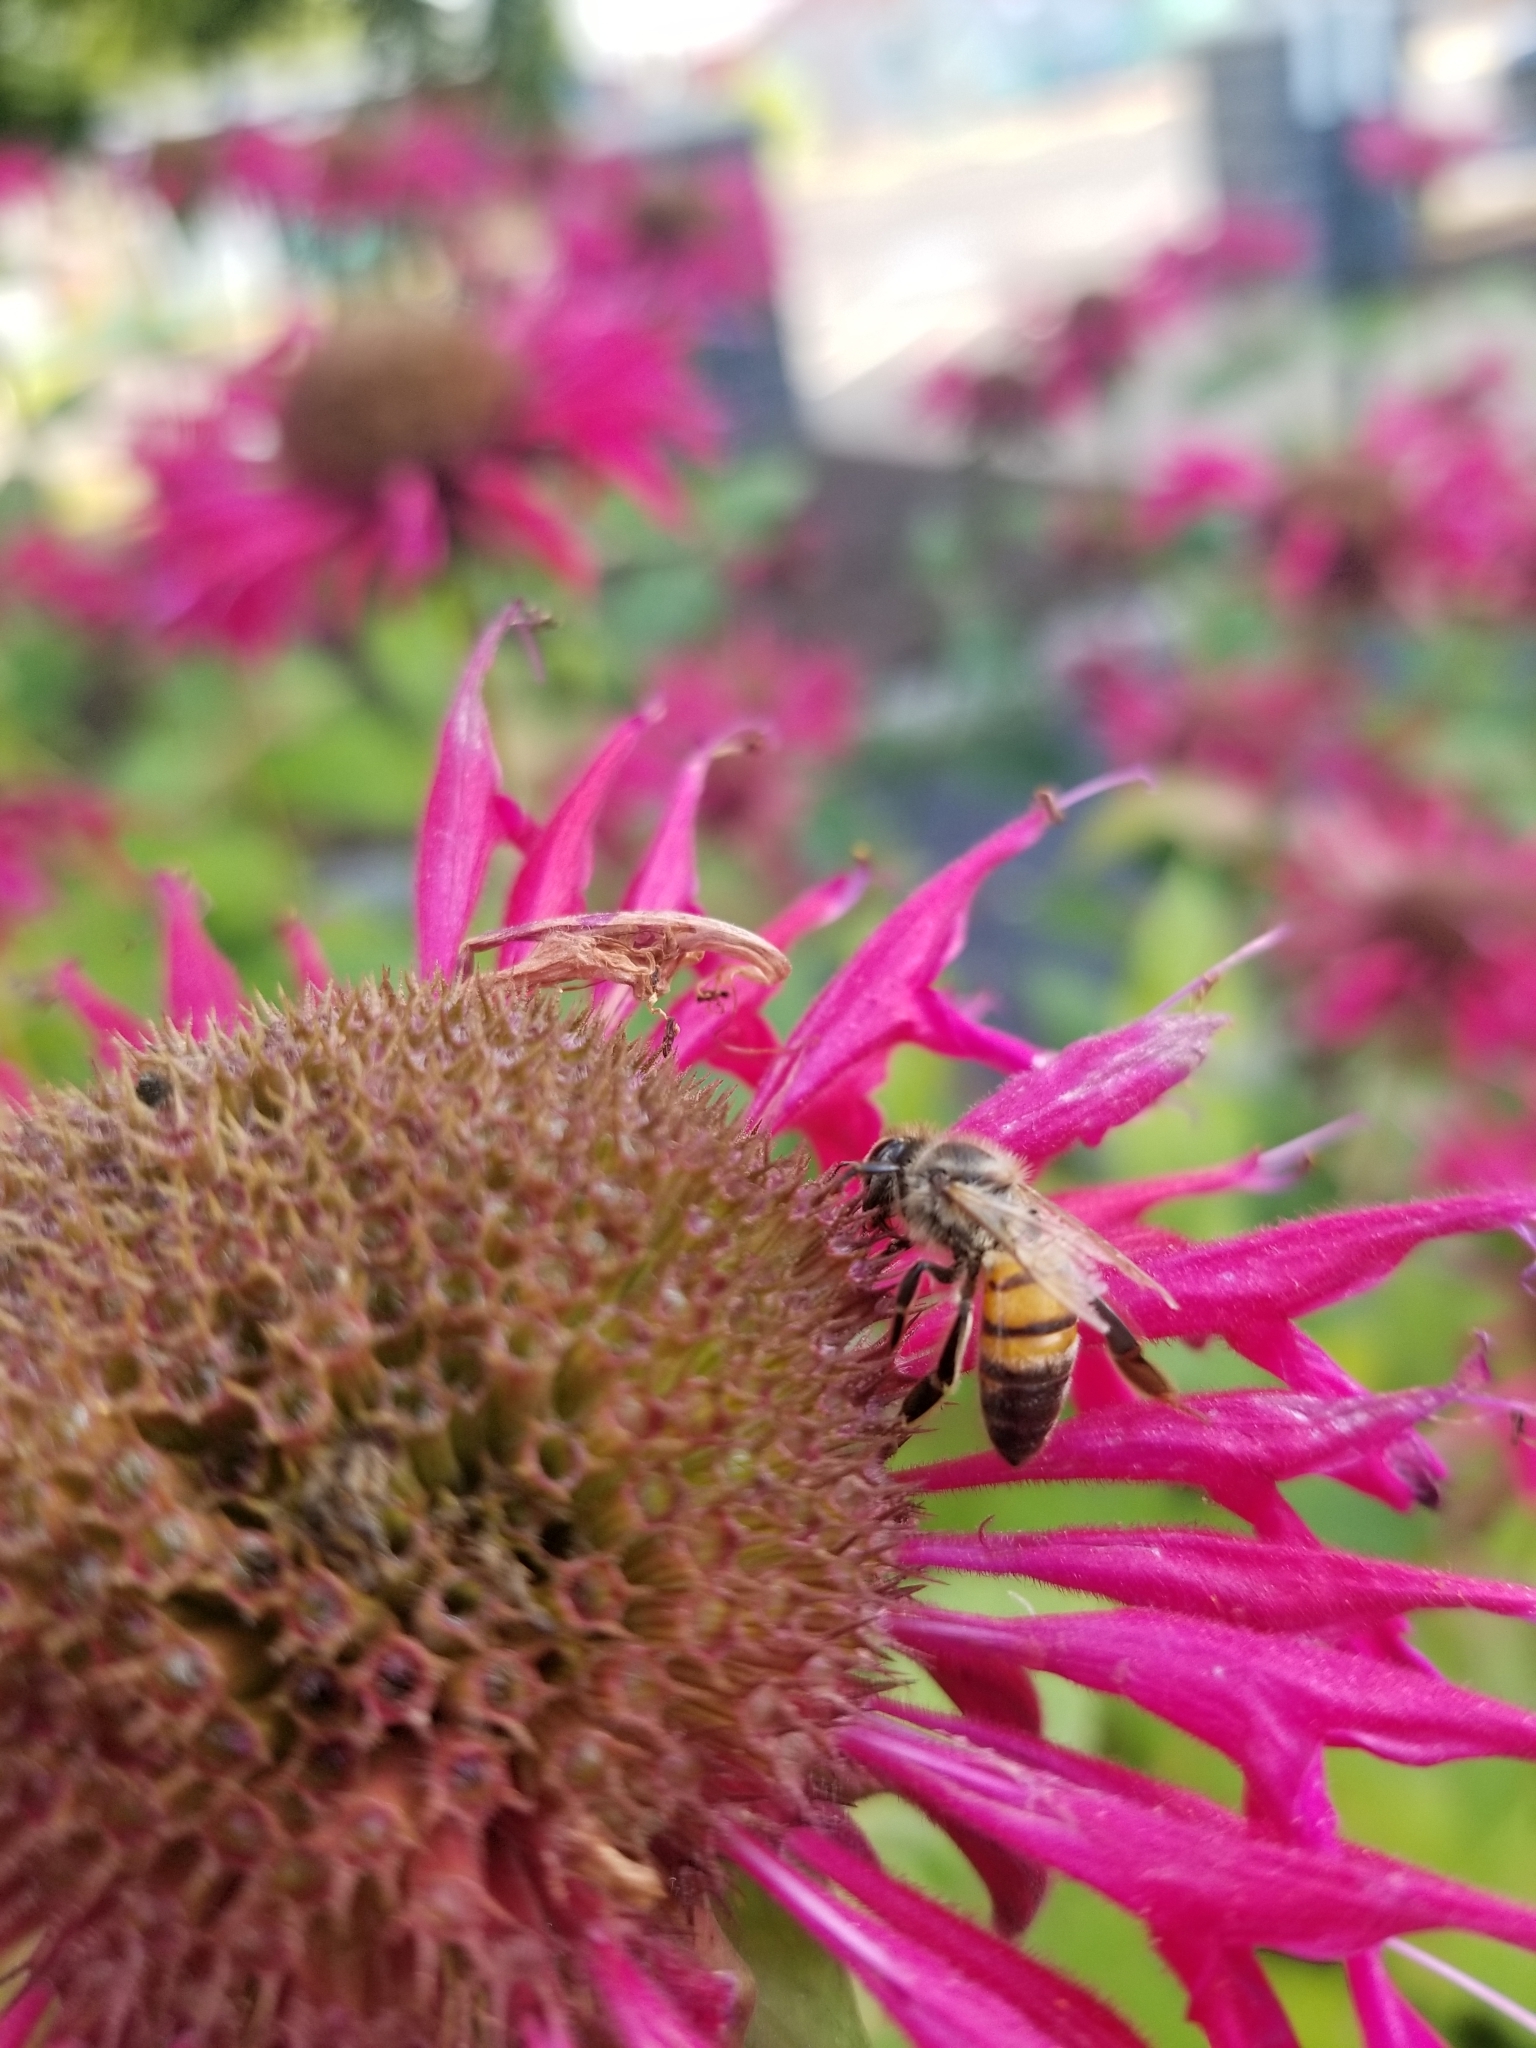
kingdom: Animalia
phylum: Arthropoda
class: Insecta
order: Hymenoptera
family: Apidae
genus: Apis
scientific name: Apis mellifera
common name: Honey bee
